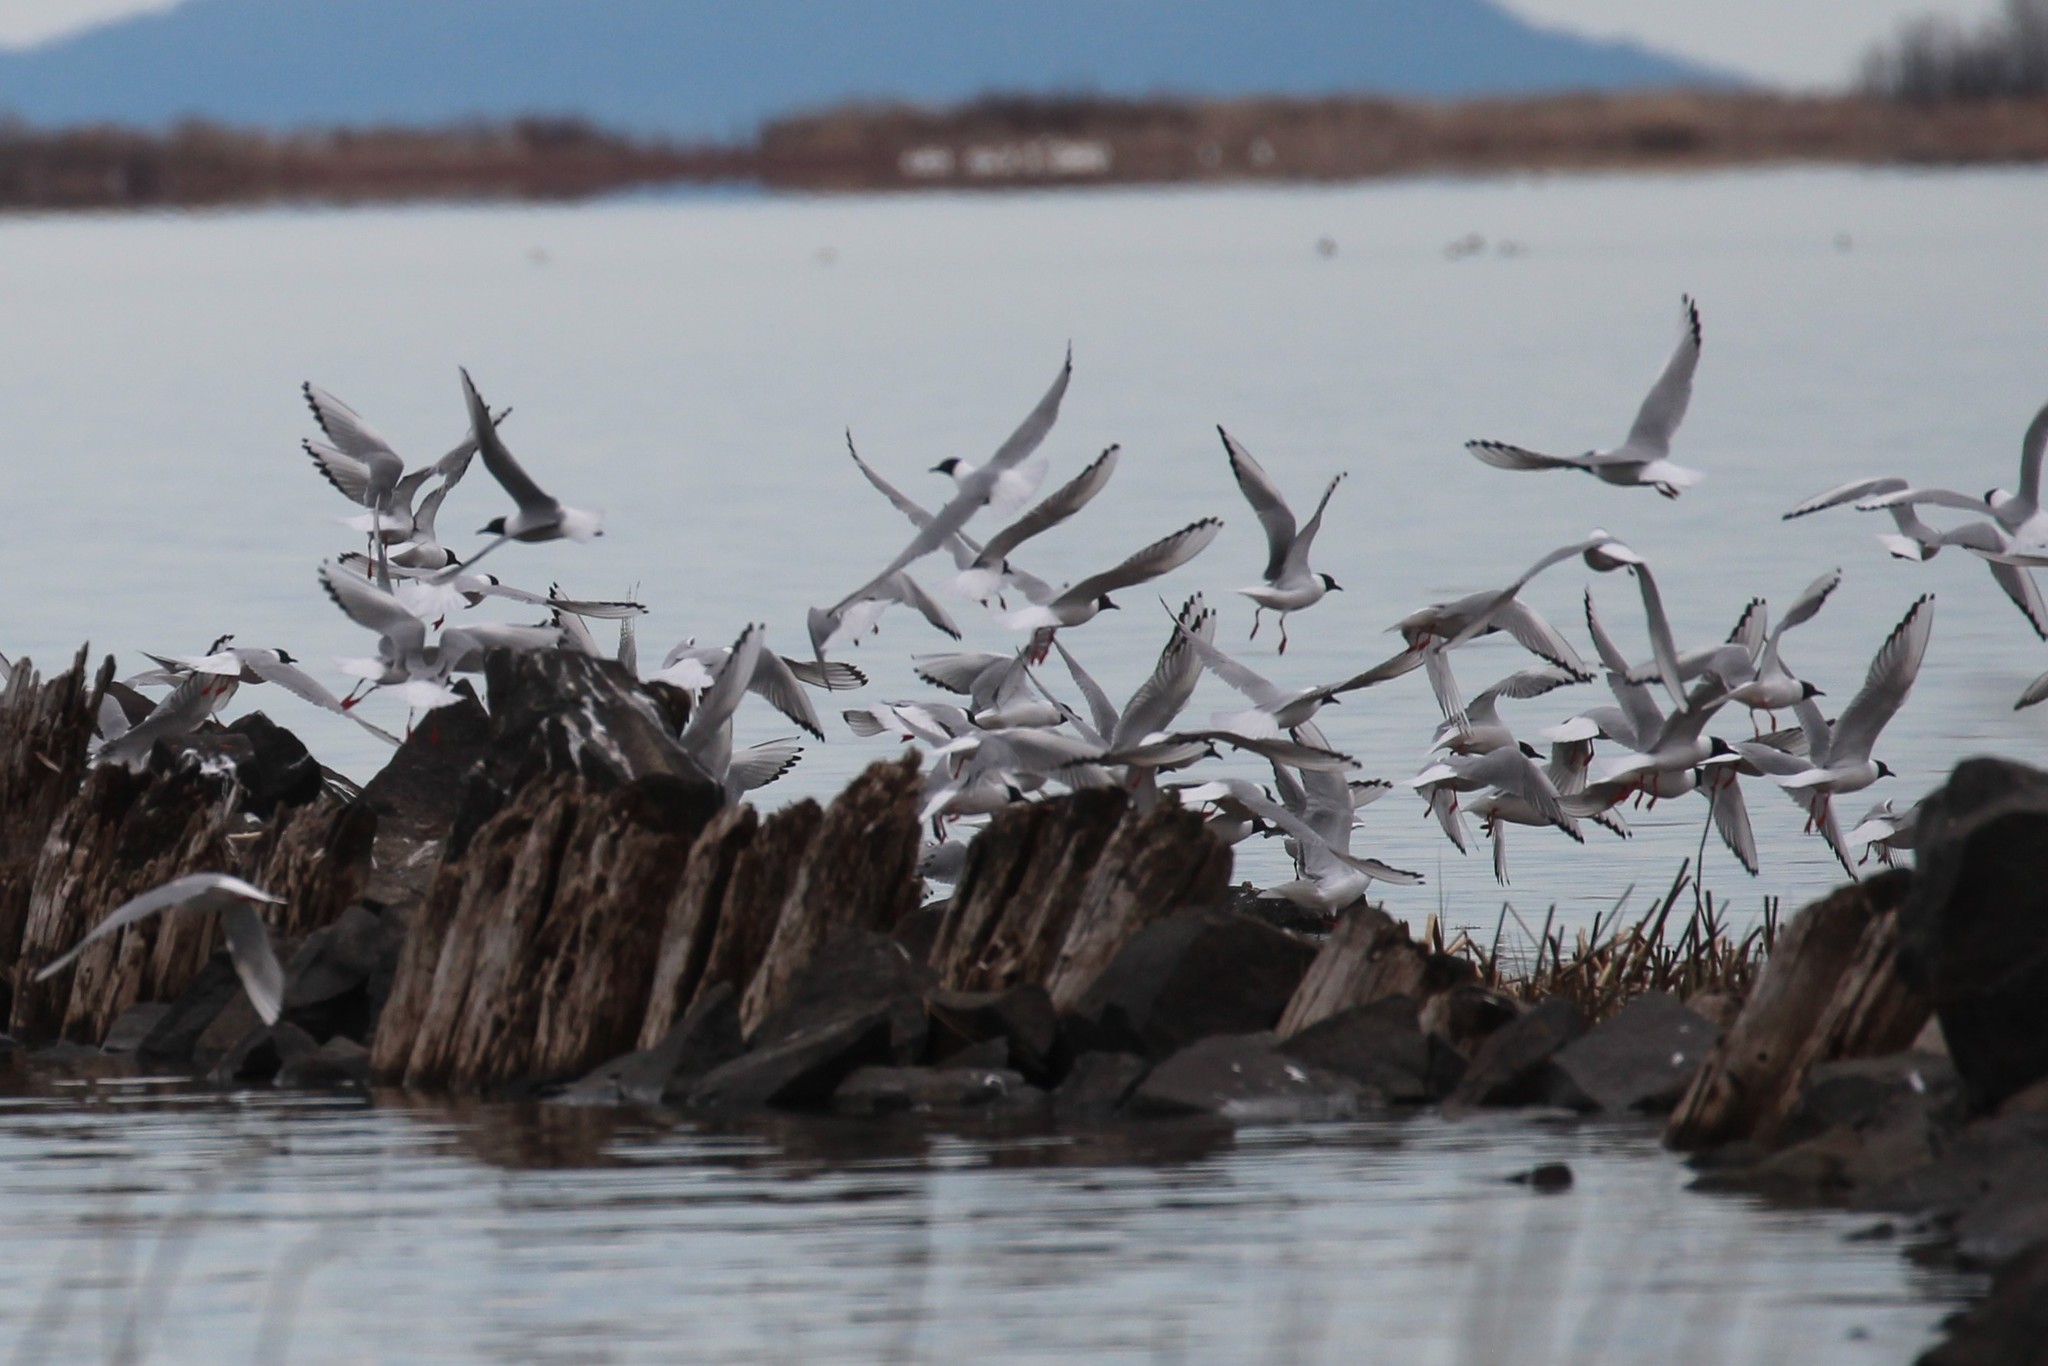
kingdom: Animalia
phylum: Chordata
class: Aves
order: Charadriiformes
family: Laridae
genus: Chroicocephalus
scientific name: Chroicocephalus philadelphia
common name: Bonaparte's gull
